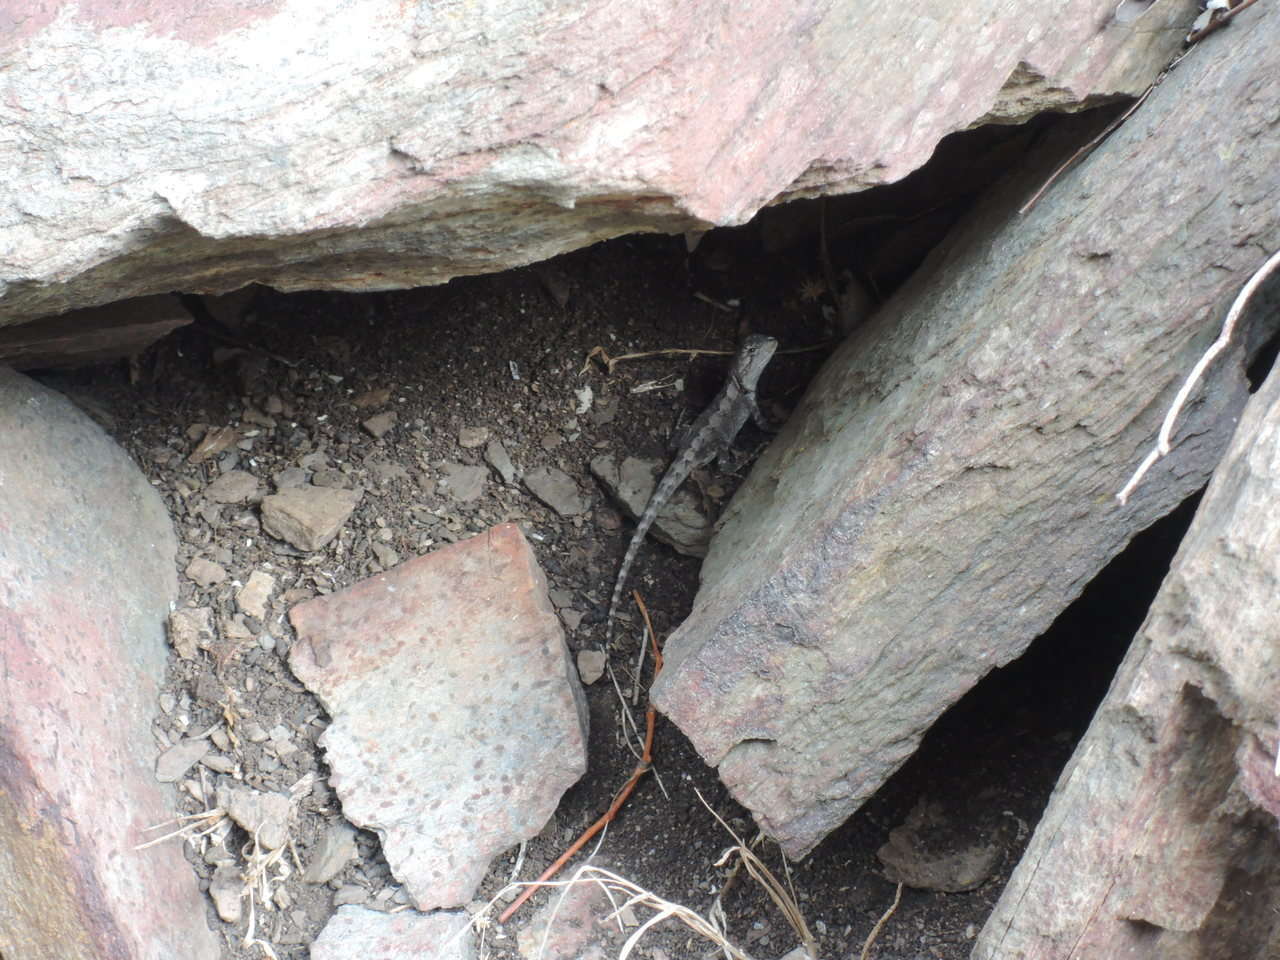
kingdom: Animalia
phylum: Chordata
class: Squamata
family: Agamidae
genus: Amphibolurus
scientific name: Amphibolurus muricatus
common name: Jacky lizard
